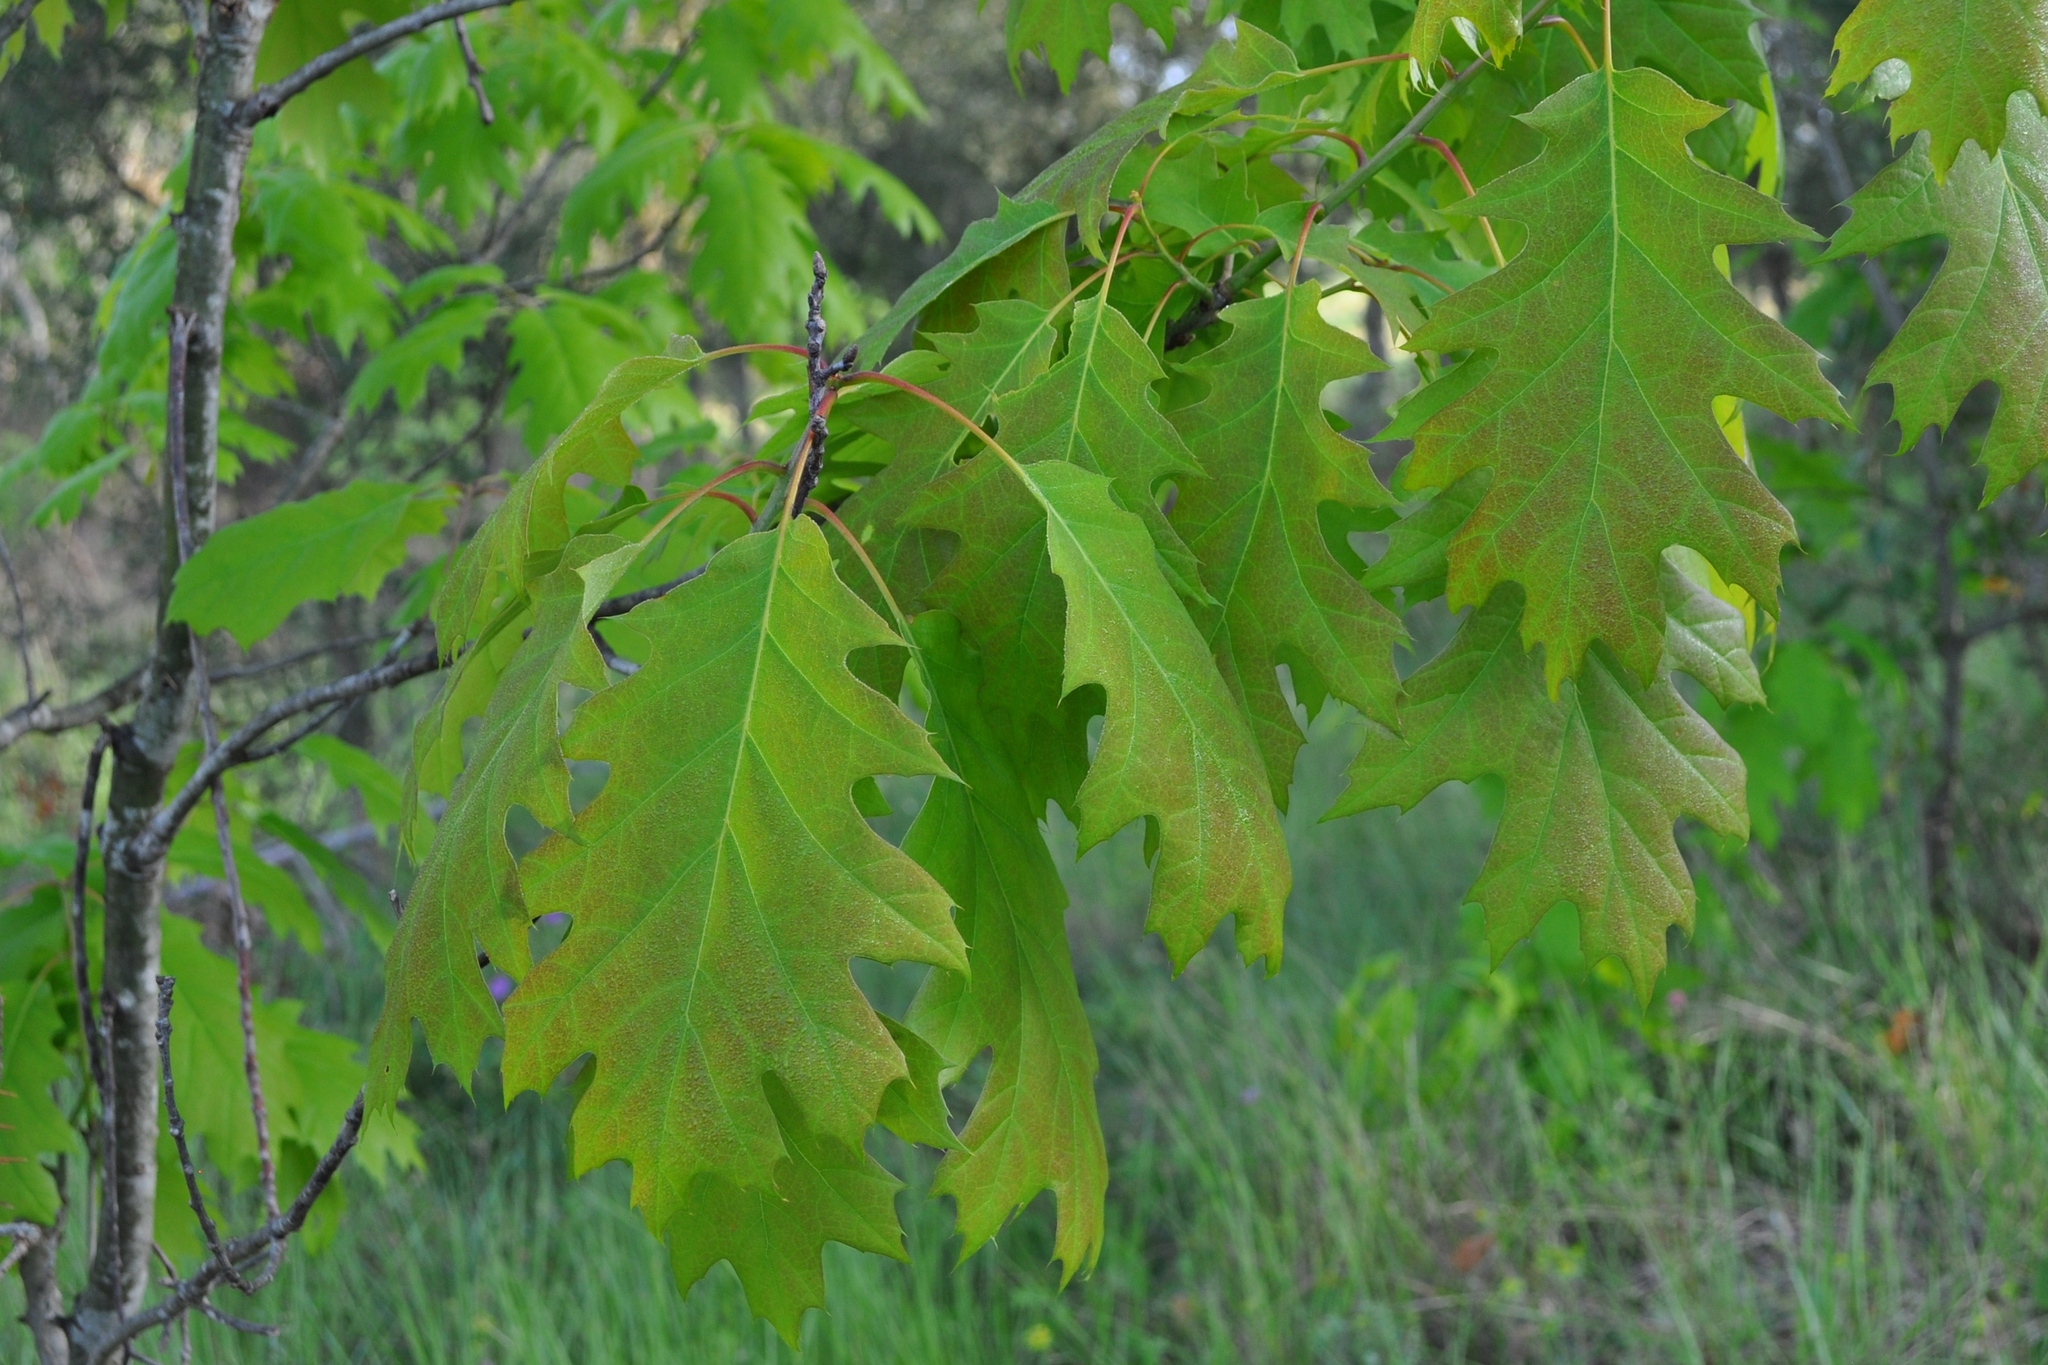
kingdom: Plantae
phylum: Tracheophyta
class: Magnoliopsida
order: Fagales
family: Fagaceae
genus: Quercus
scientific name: Quercus rubra
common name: Red oak
